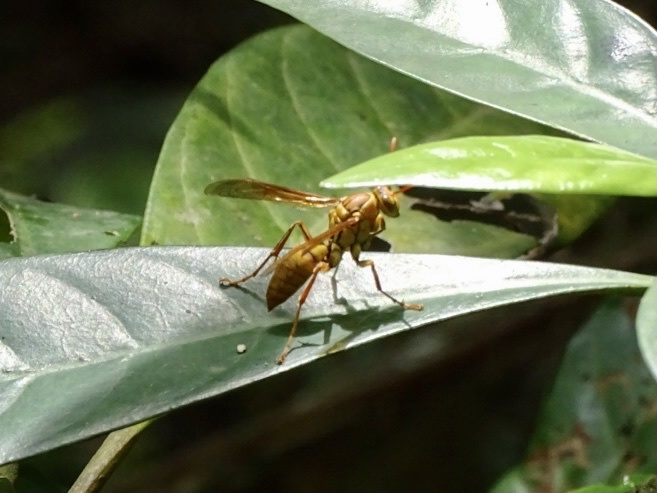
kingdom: Animalia
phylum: Arthropoda
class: Insecta
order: Hymenoptera
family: Eumenidae
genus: Polistes
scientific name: Polistes japonicus
